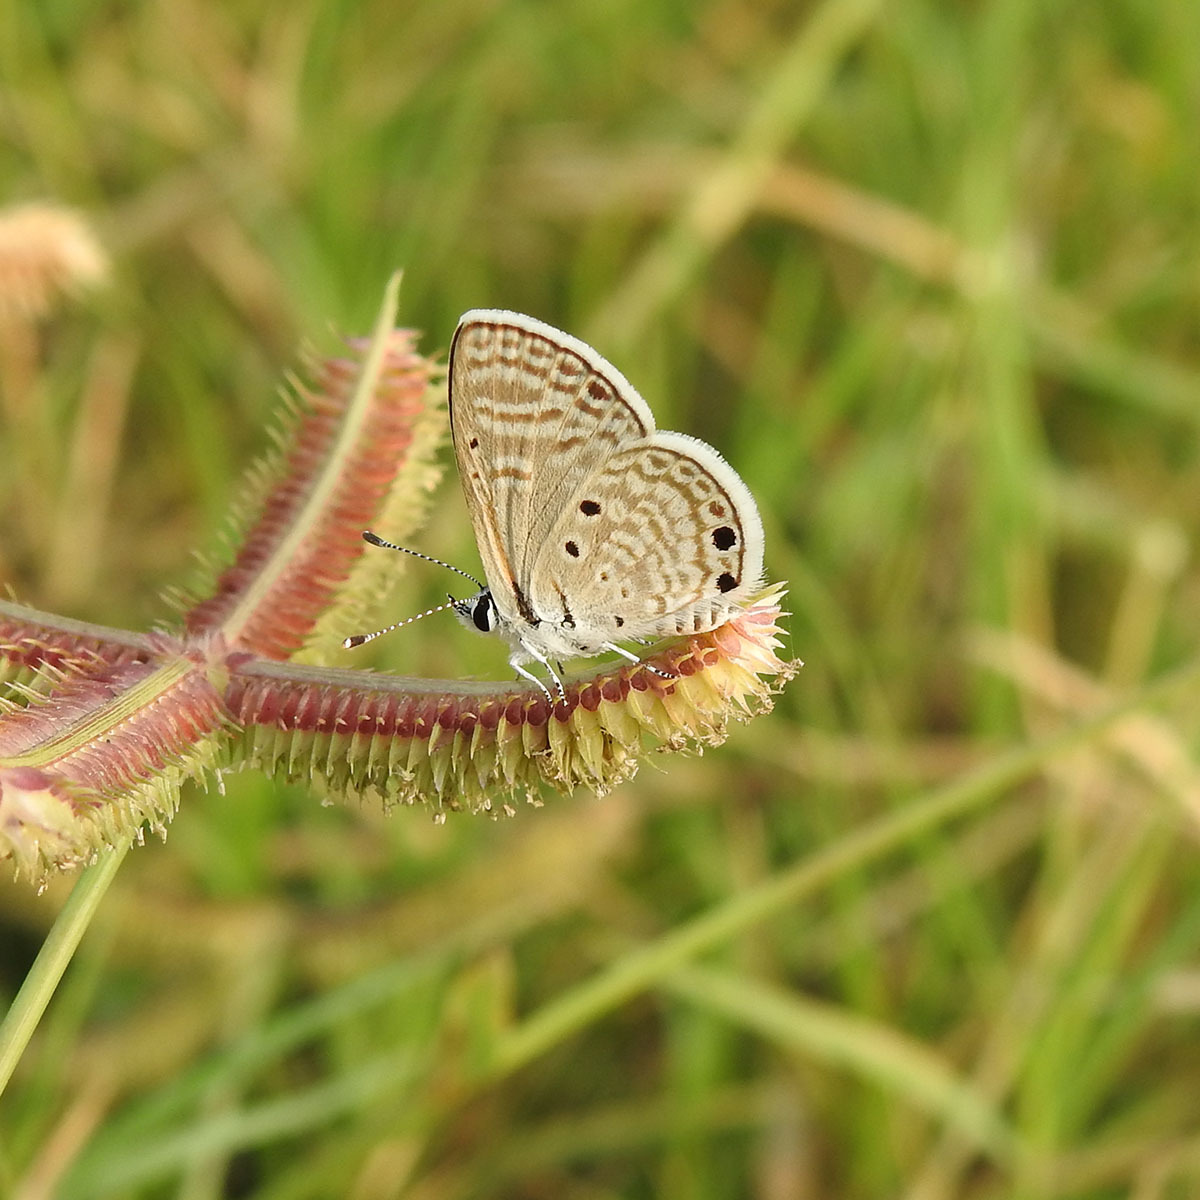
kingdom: Animalia
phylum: Arthropoda
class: Insecta
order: Lepidoptera
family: Lycaenidae
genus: Azanus
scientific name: Azanus ubaldus
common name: Desert babul blue
